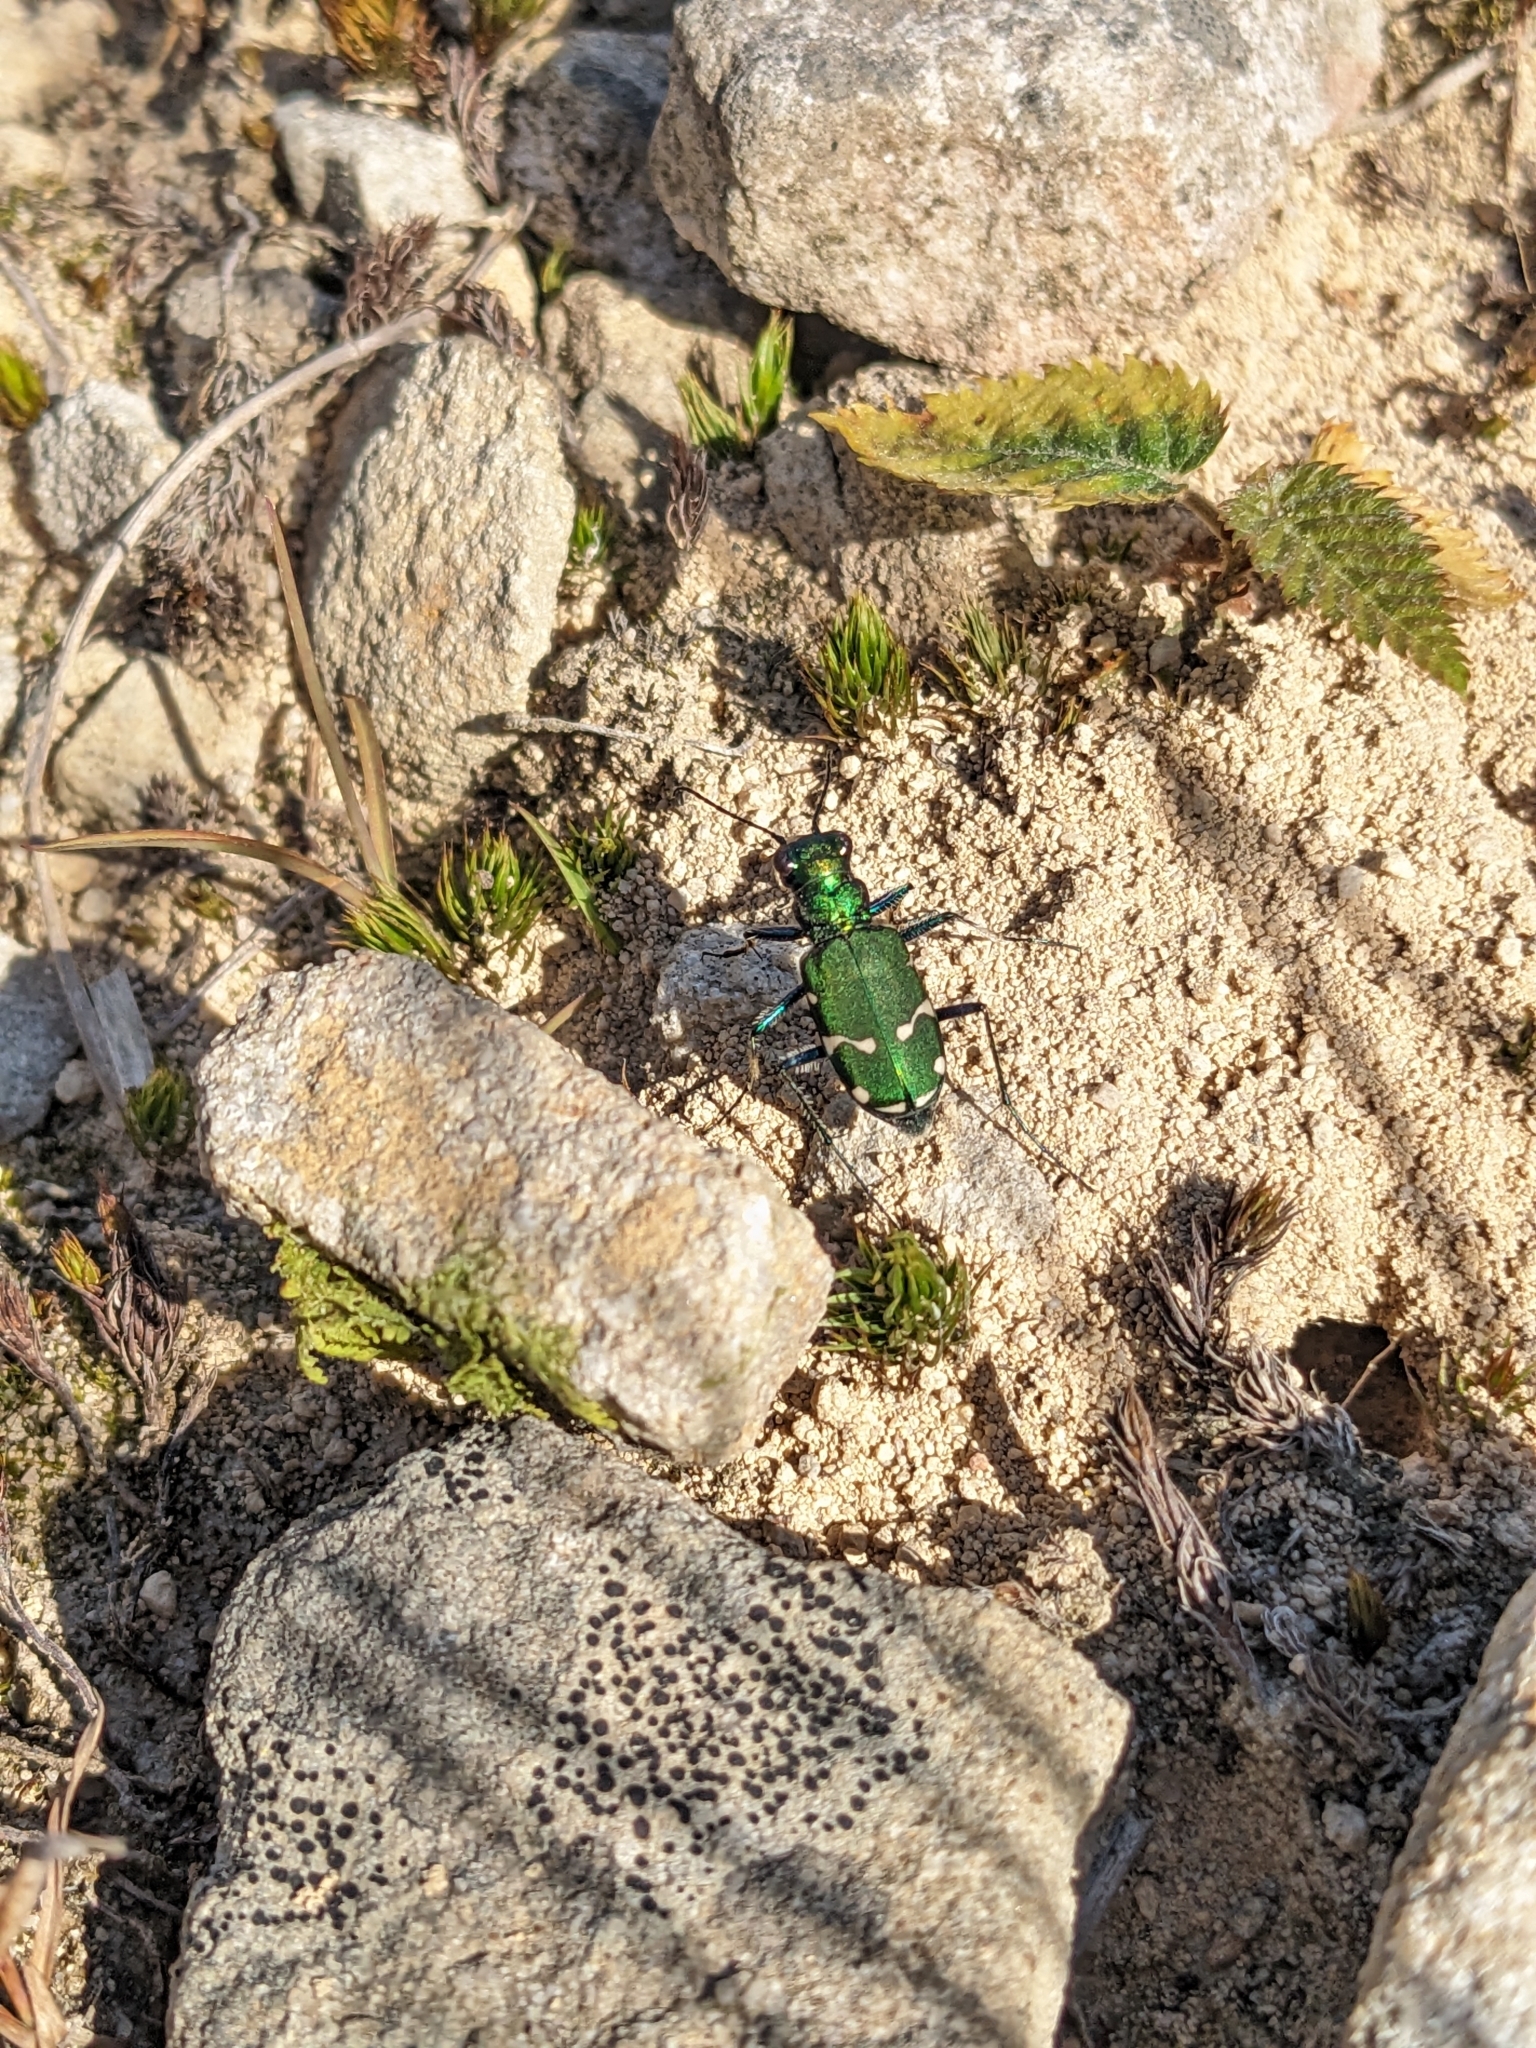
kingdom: Animalia
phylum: Arthropoda
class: Insecta
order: Coleoptera
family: Carabidae
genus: Cicindela
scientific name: Cicindela patruela
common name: Northern barrens tiger beetle
